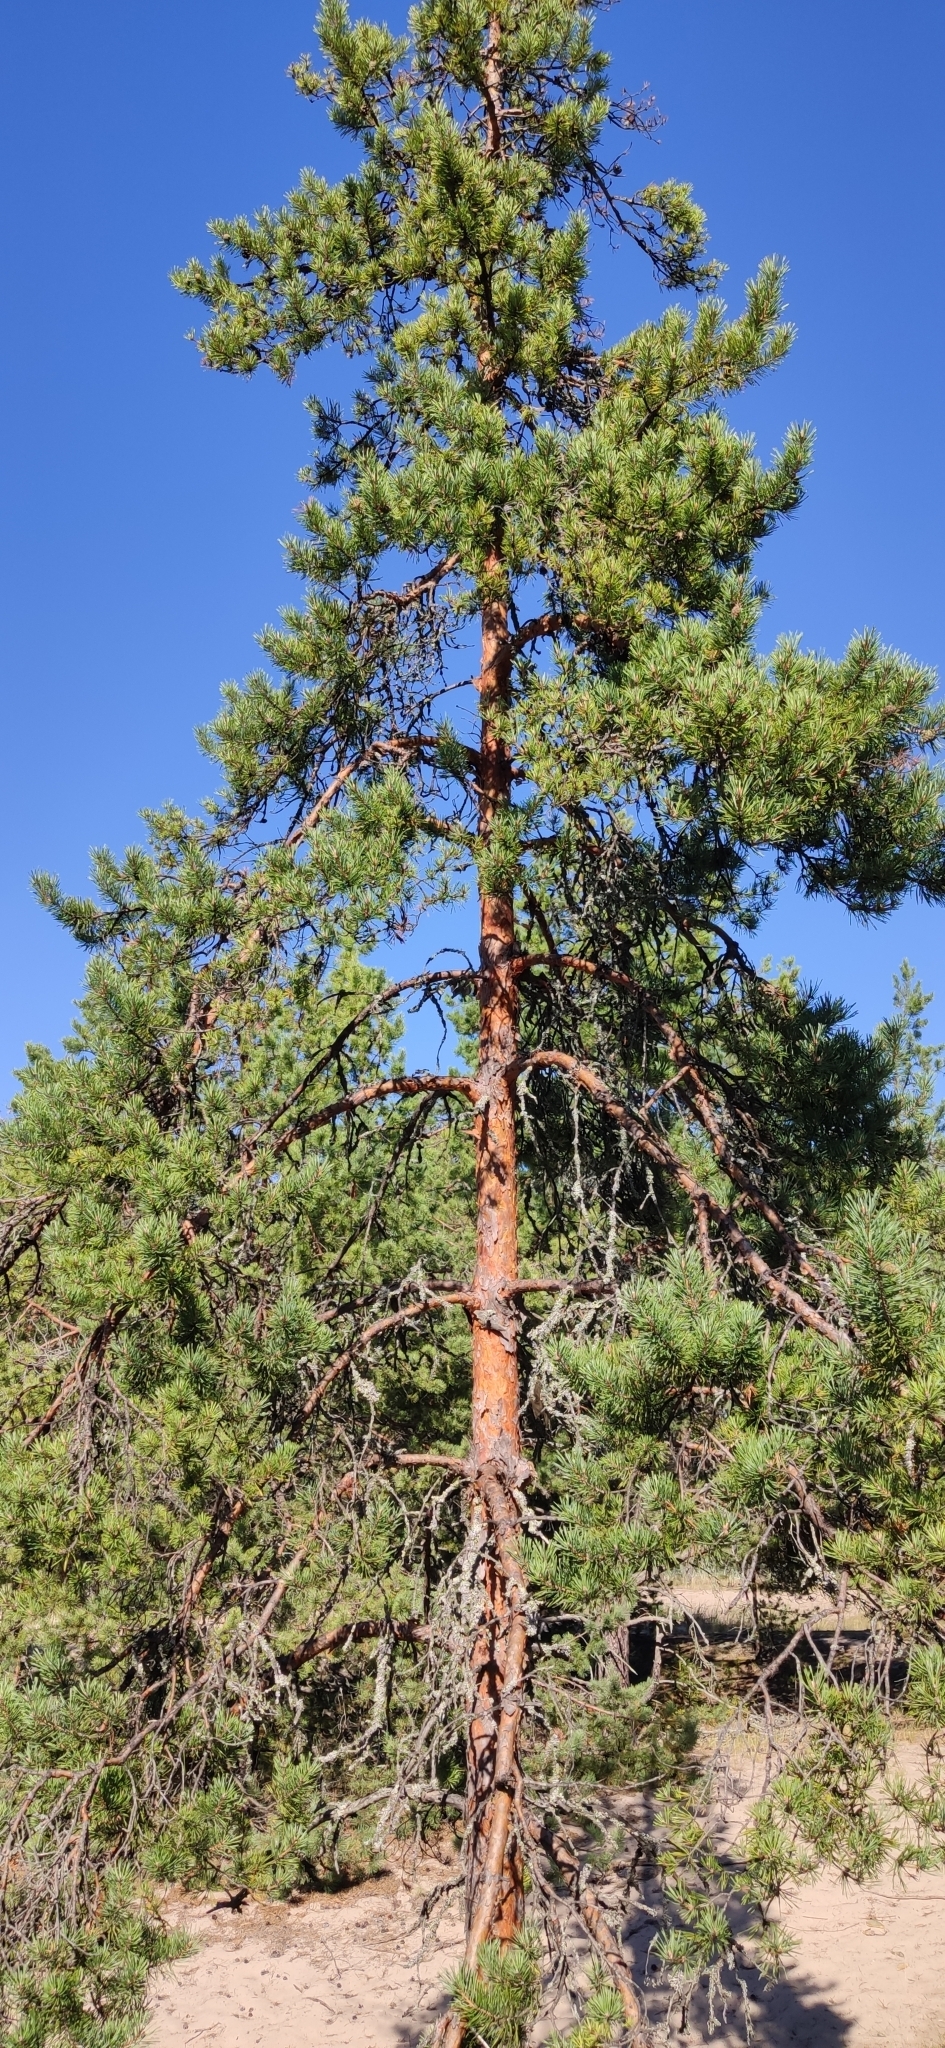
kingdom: Plantae
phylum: Tracheophyta
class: Pinopsida
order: Pinales
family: Pinaceae
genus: Pinus
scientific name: Pinus sylvestris
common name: Scots pine
